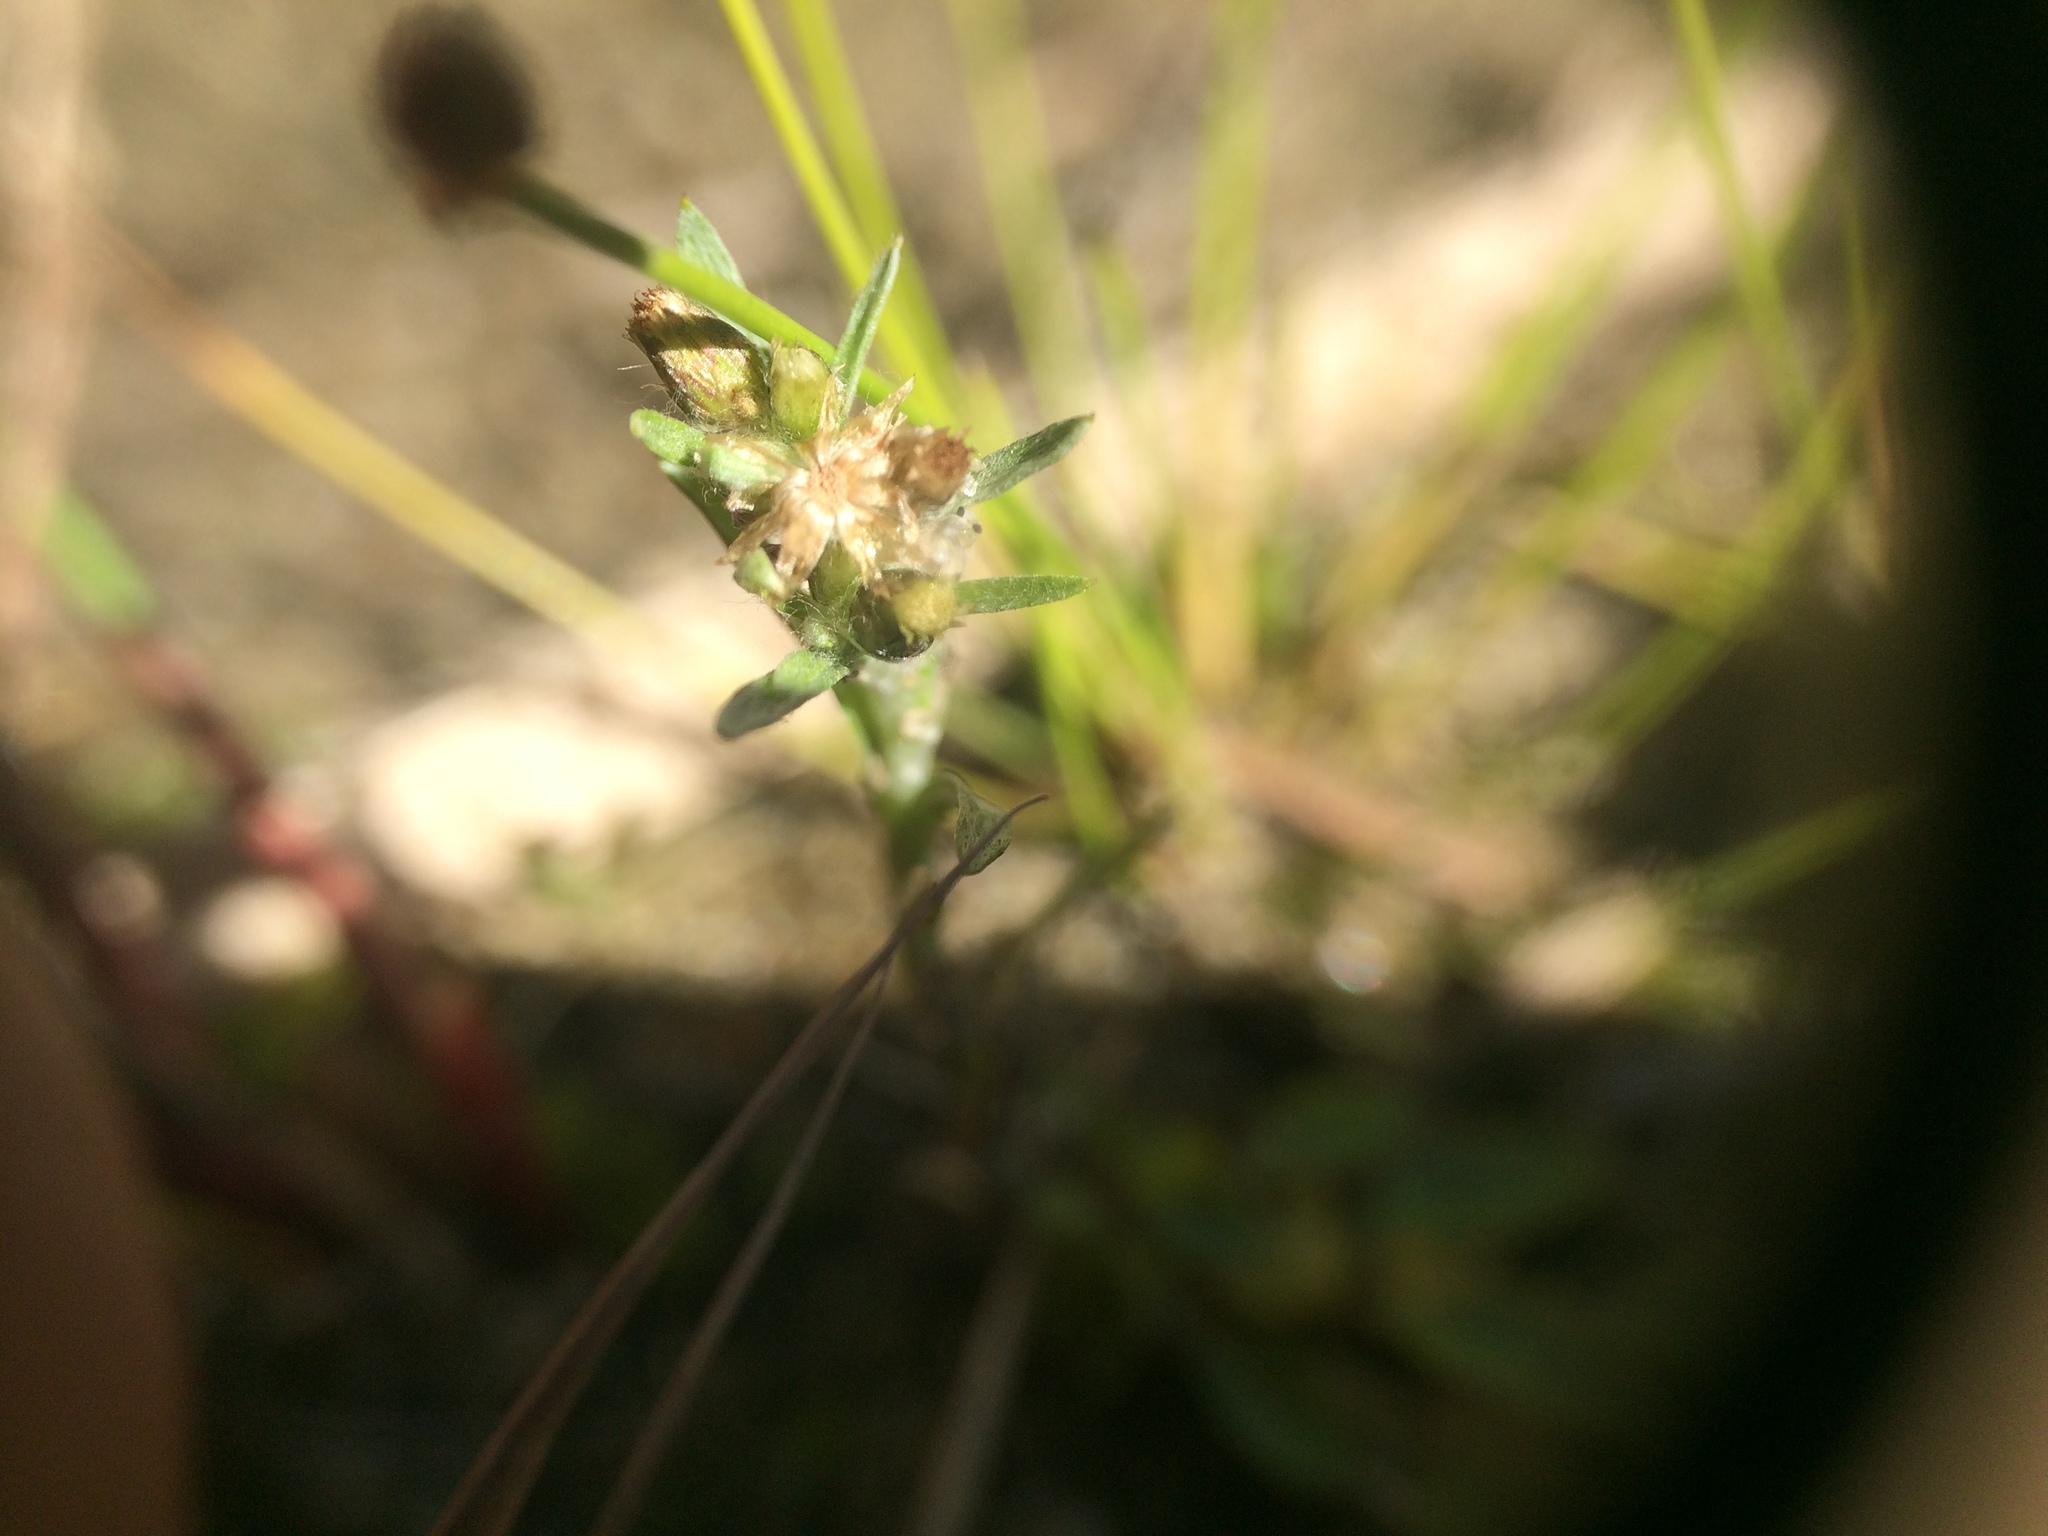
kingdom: Plantae
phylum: Tracheophyta
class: Magnoliopsida
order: Asterales
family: Asteraceae
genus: Gnaphalium
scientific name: Gnaphalium uliginosum
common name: Marsh cudweed
